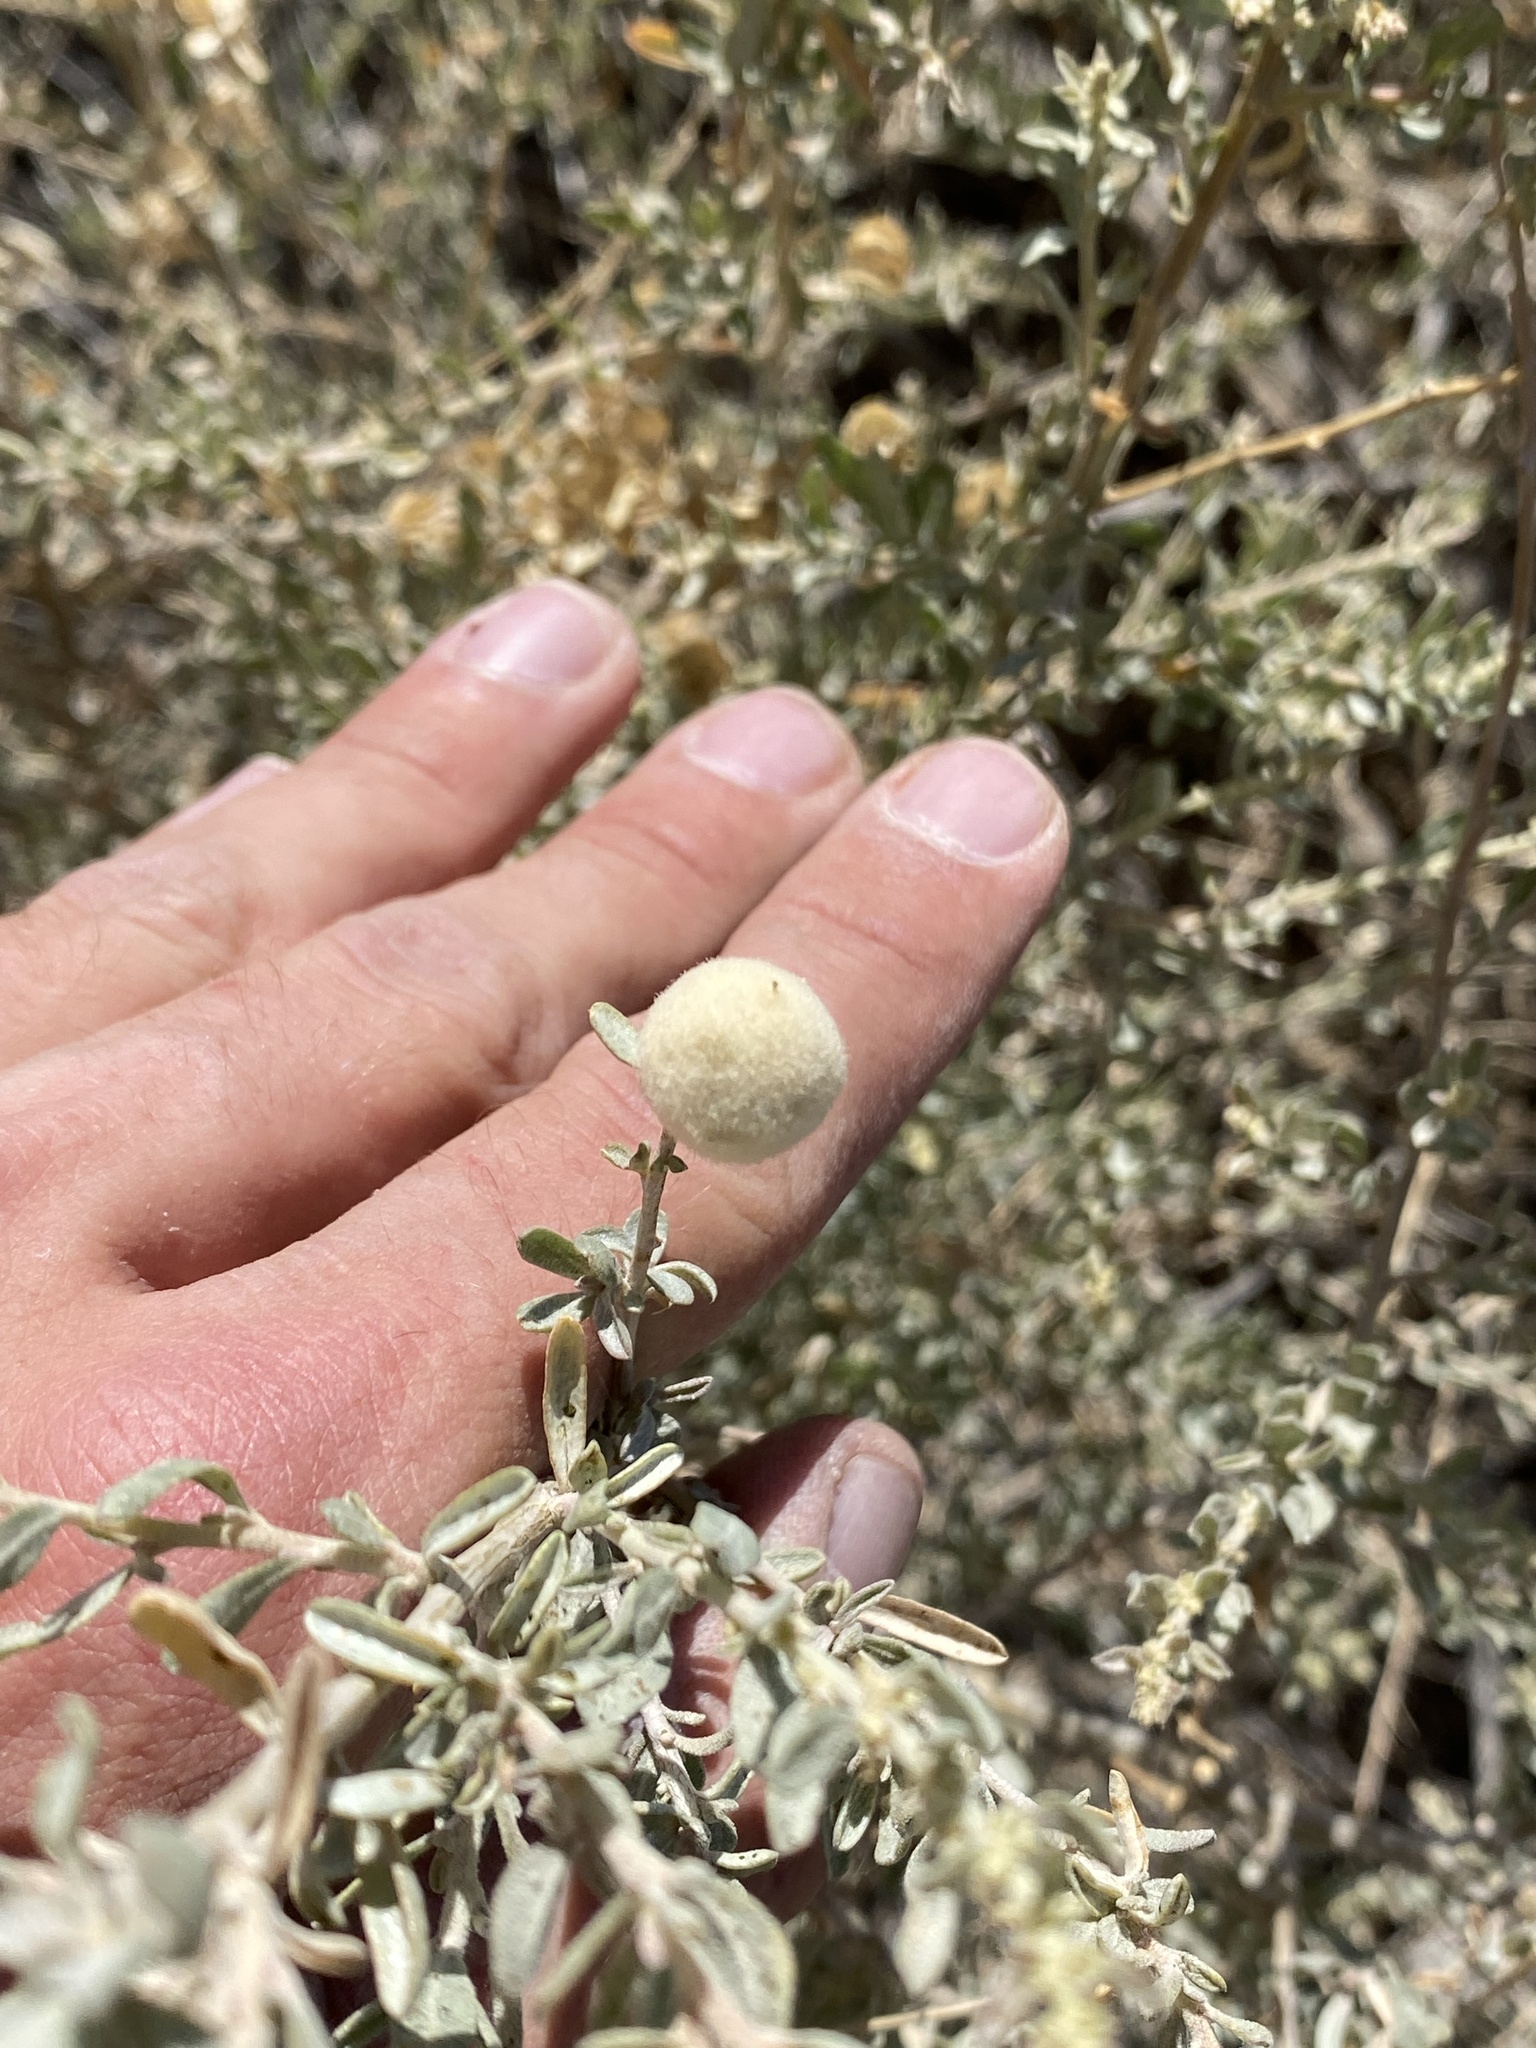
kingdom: Animalia
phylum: Arthropoda
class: Insecta
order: Diptera
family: Cecidomyiidae
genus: Asphondylia
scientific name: Asphondylia neomexicana
